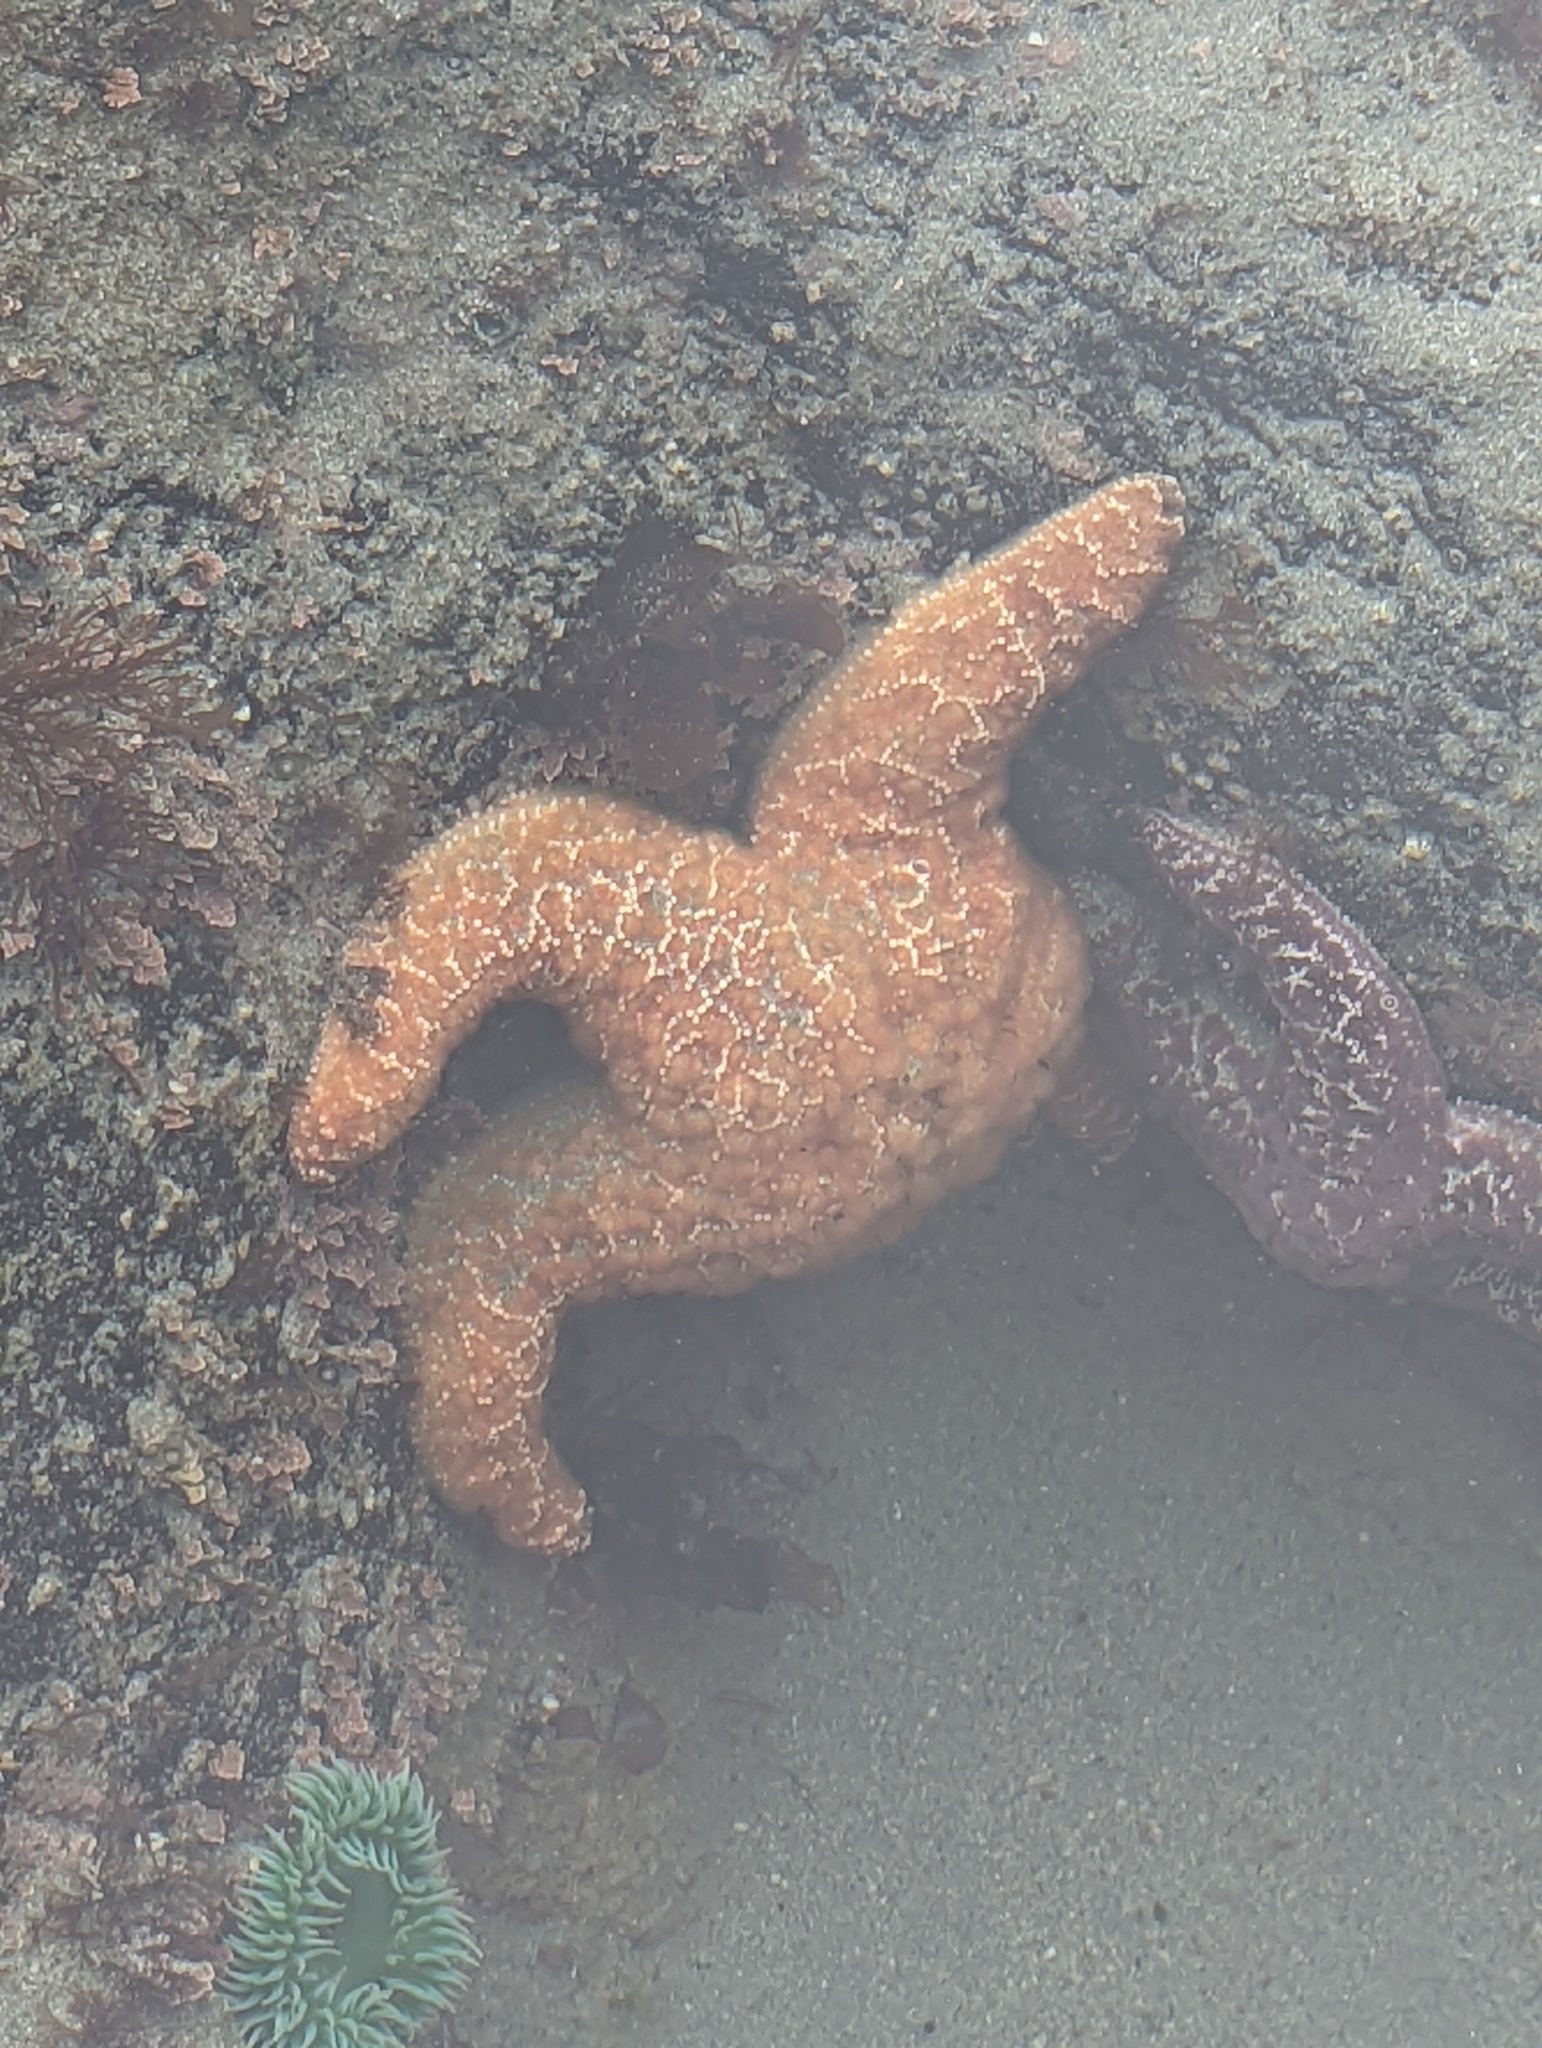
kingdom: Animalia
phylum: Echinodermata
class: Asteroidea
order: Forcipulatida
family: Asteriidae
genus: Pisaster
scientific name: Pisaster ochraceus
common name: Ochre stars
